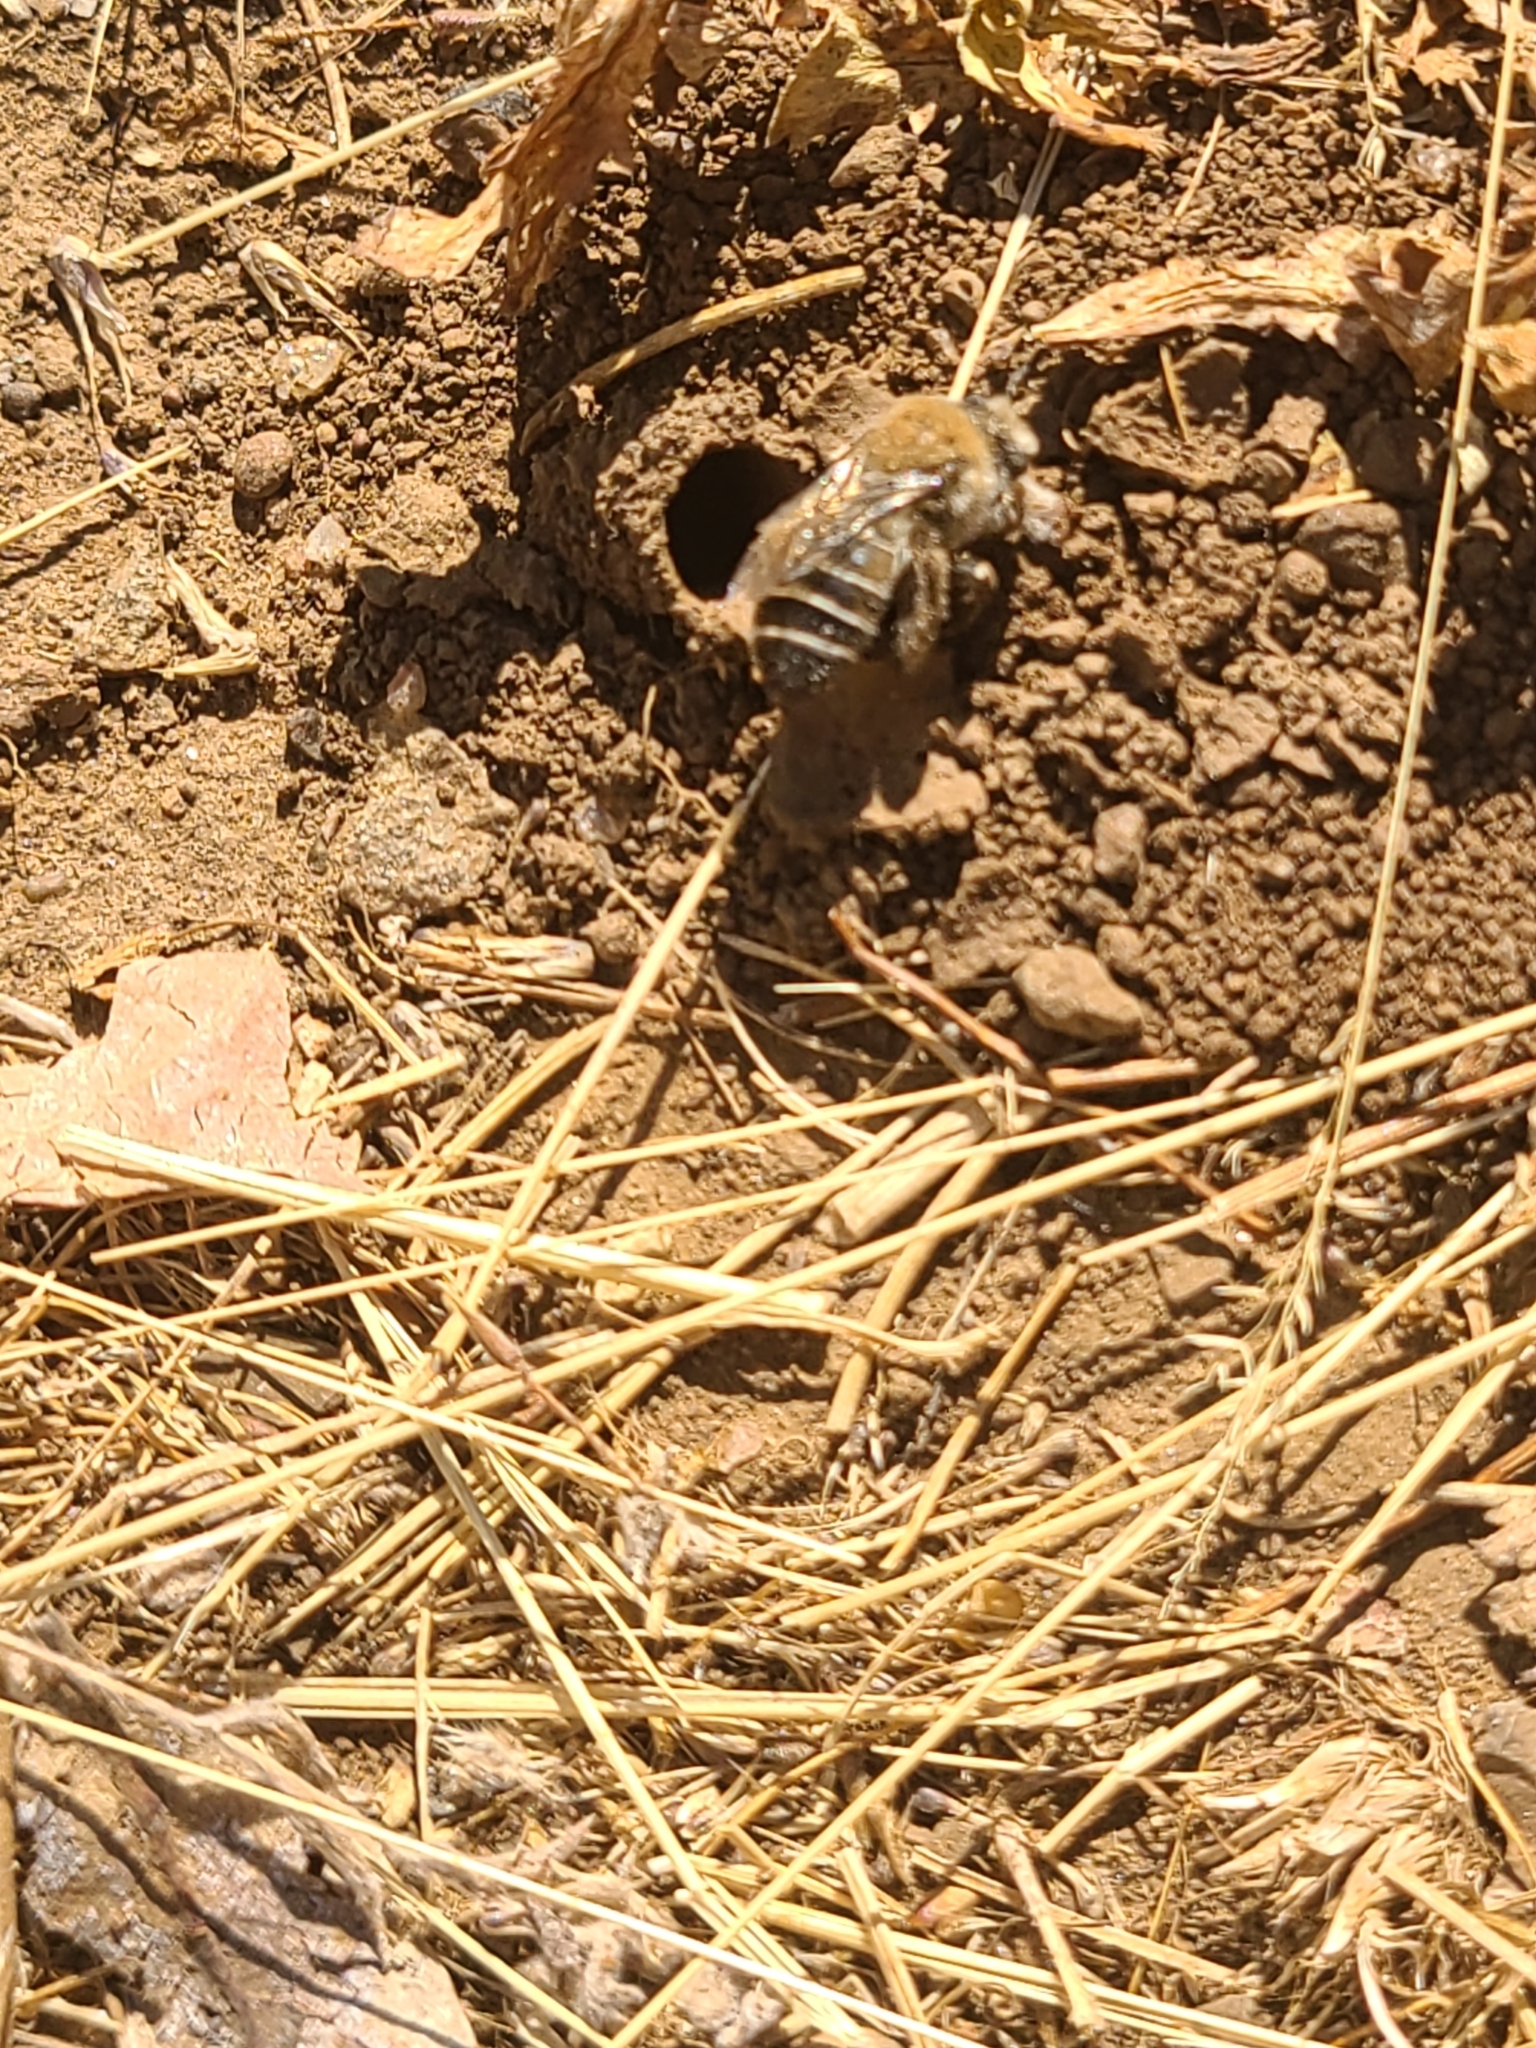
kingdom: Animalia
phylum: Arthropoda
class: Insecta
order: Hymenoptera
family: Apidae
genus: Diadasia
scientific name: Diadasia bituberculata
